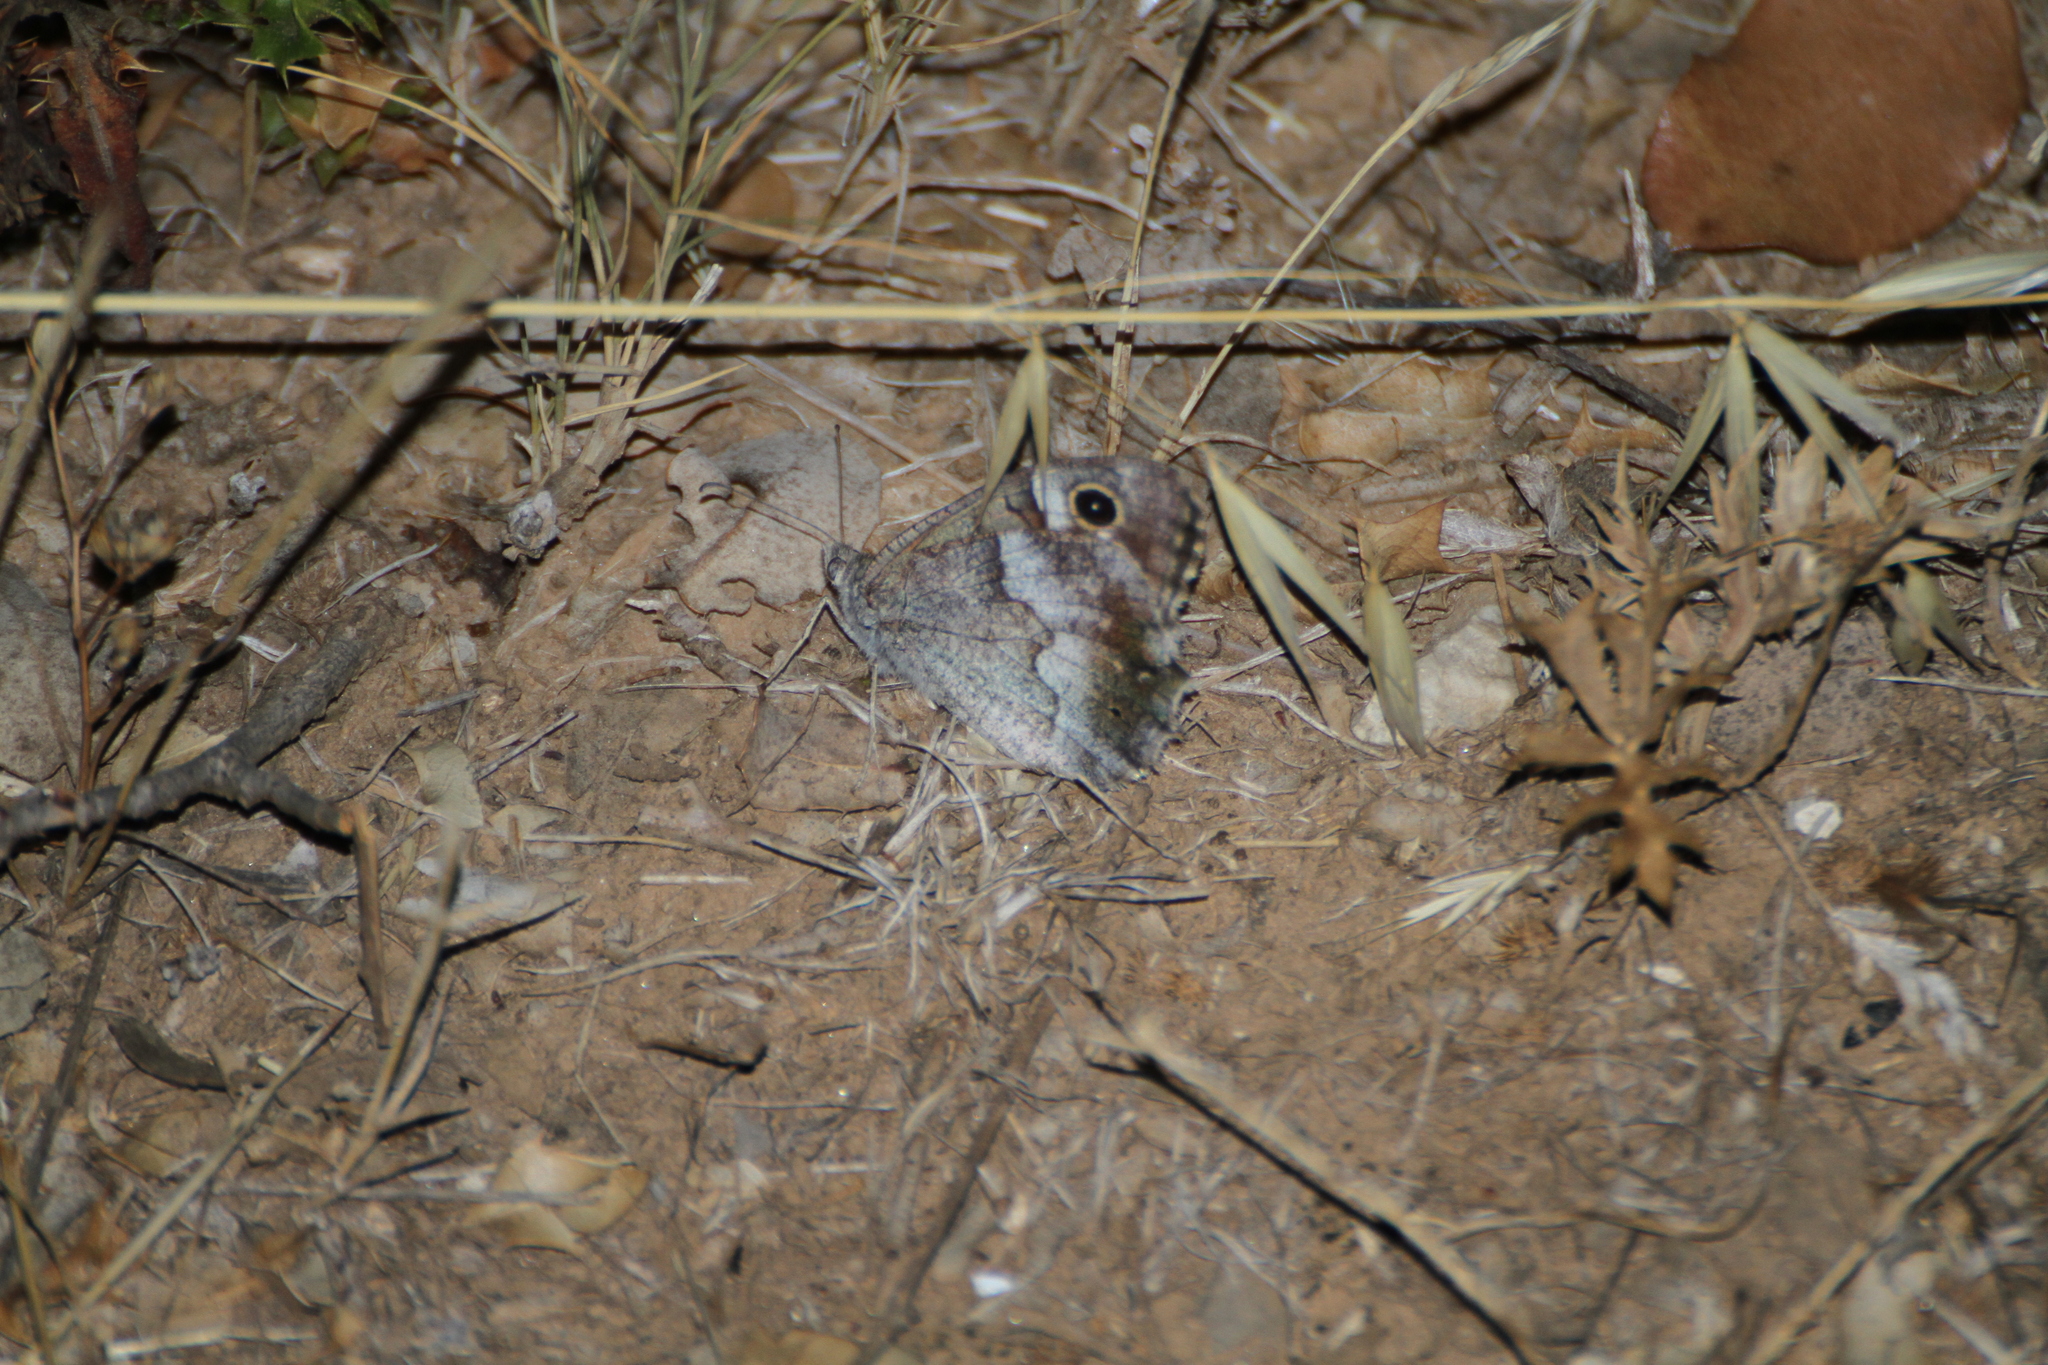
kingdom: Animalia
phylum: Arthropoda
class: Insecta
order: Lepidoptera
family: Nymphalidae
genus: Hipparchia
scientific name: Hipparchia statilinus
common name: Tree grayling
